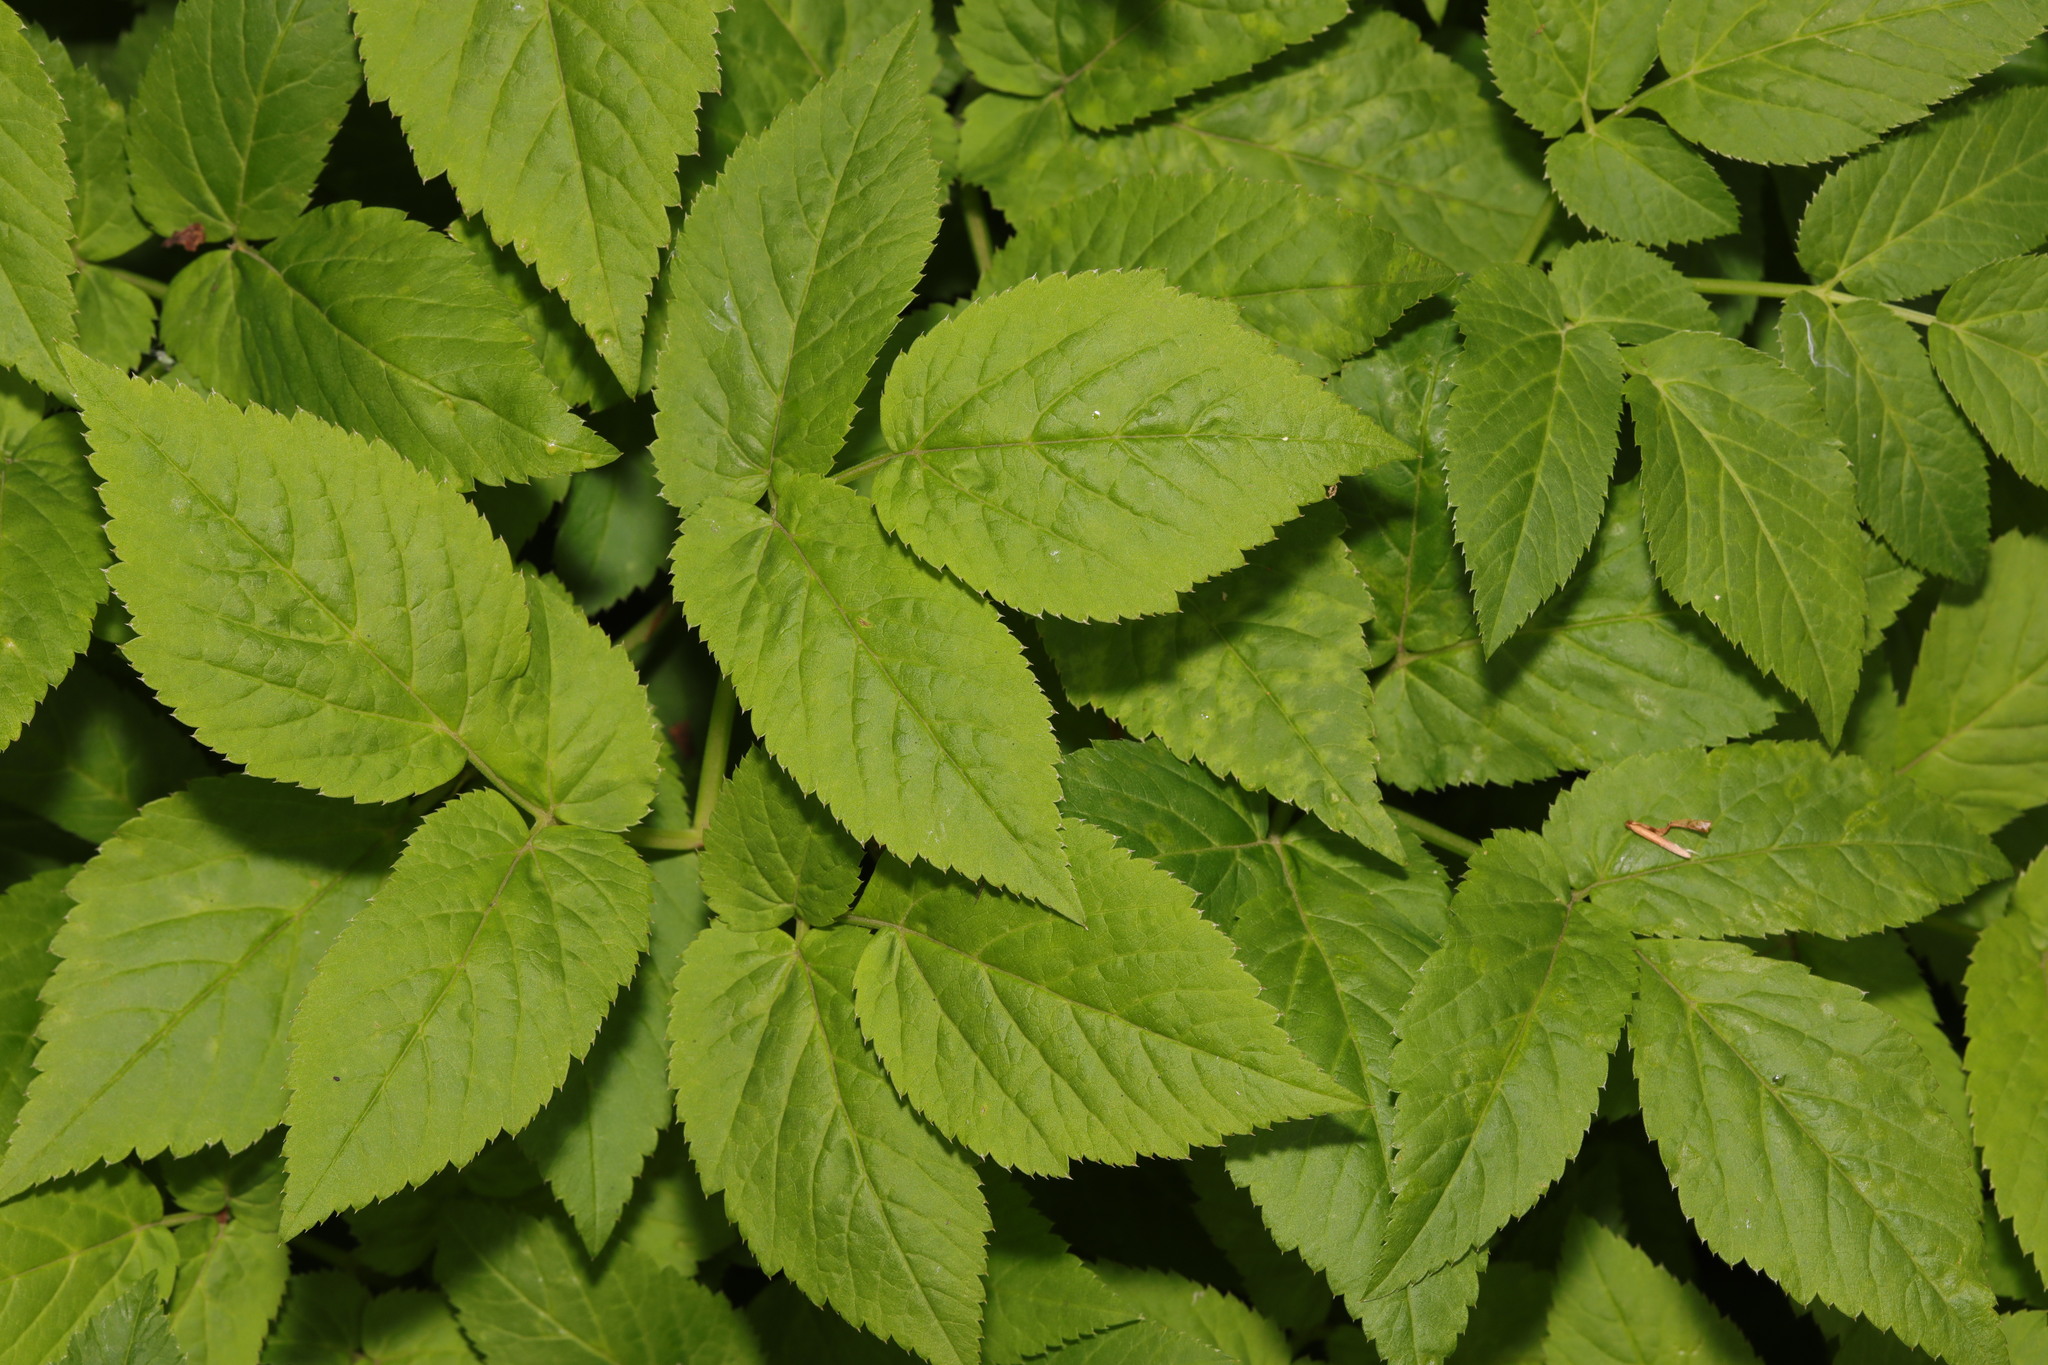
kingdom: Plantae
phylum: Tracheophyta
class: Magnoliopsida
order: Apiales
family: Apiaceae
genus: Aegopodium
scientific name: Aegopodium podagraria
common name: Ground-elder
